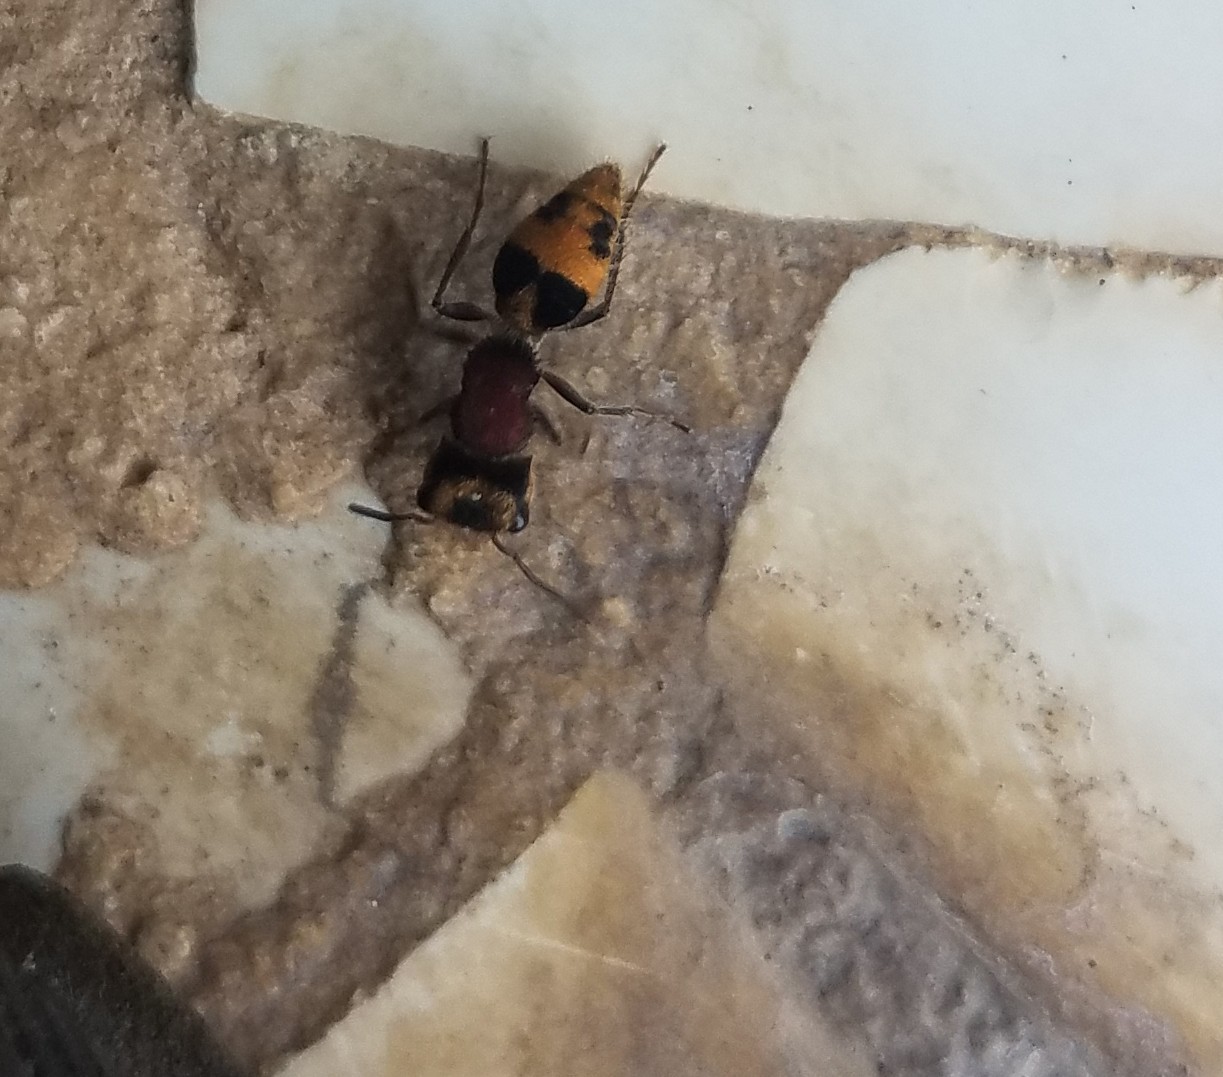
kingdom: Animalia
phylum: Arthropoda
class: Insecta
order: Hymenoptera
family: Mutillidae
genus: Pertyella
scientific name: Pertyella
